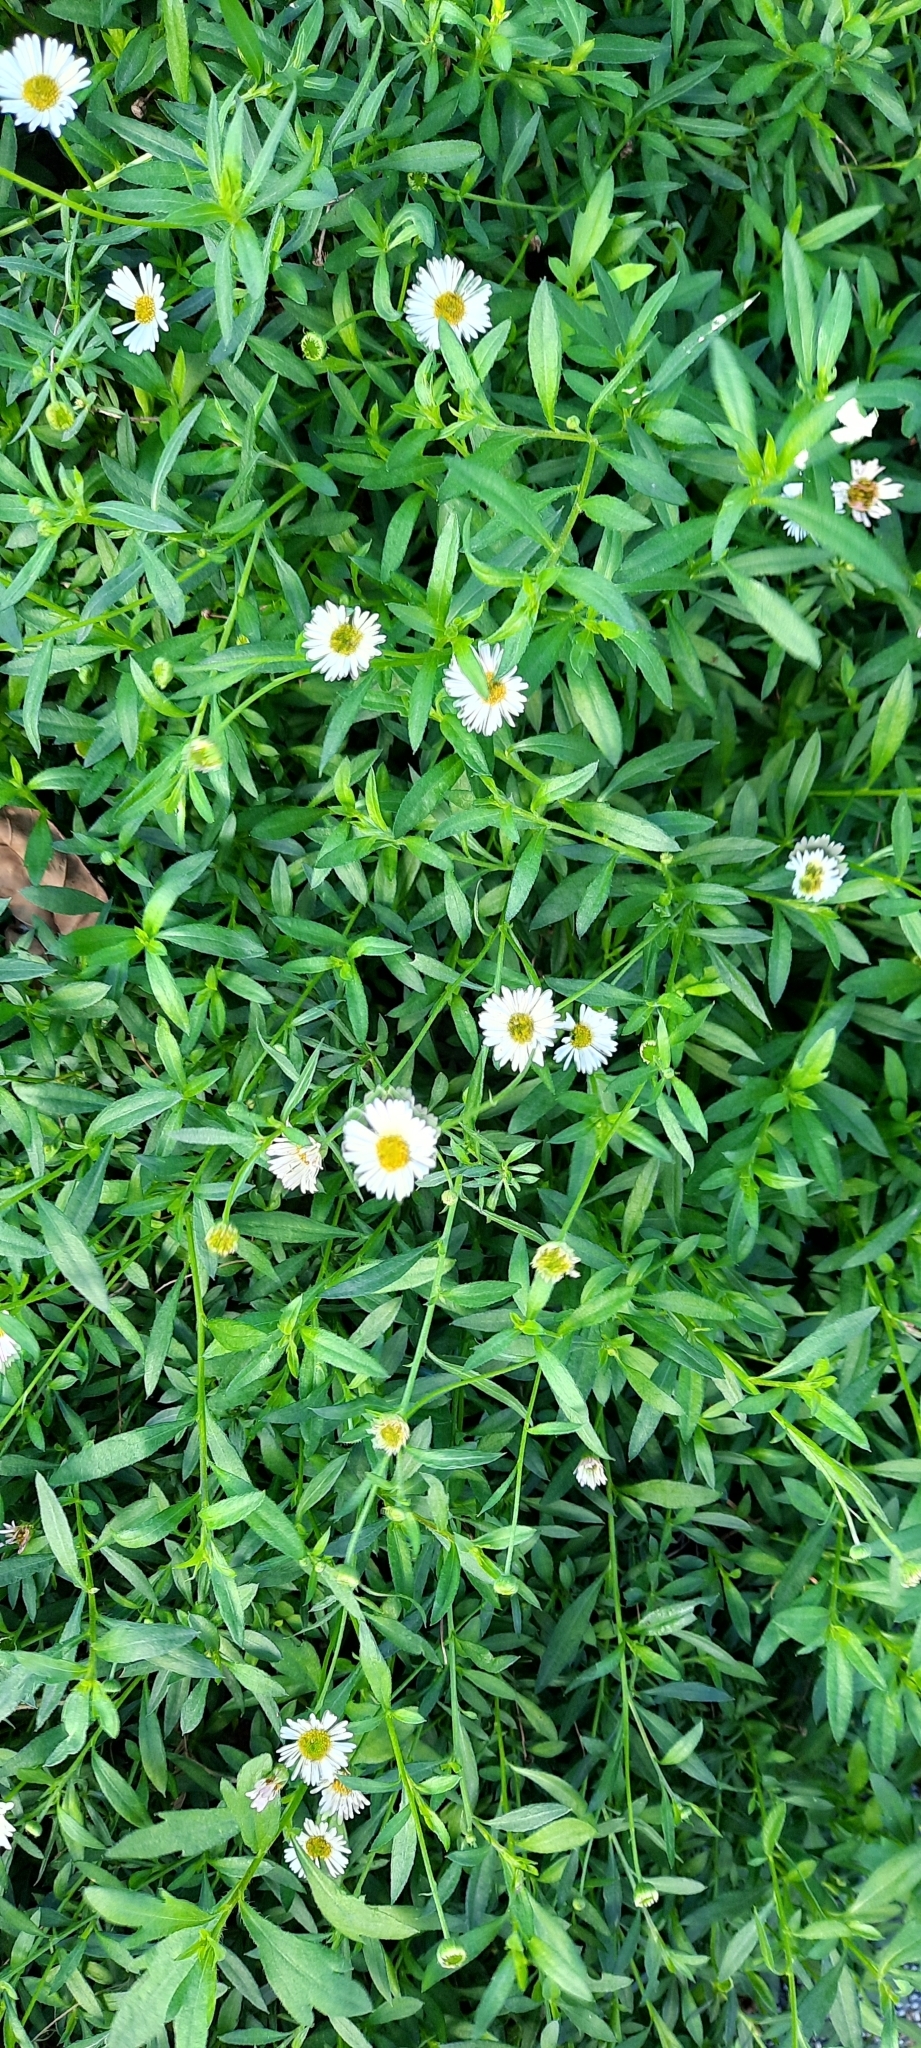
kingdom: Plantae
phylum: Tracheophyta
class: Magnoliopsida
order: Asterales
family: Asteraceae
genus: Erigeron
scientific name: Erigeron karvinskianus
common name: Mexican fleabane
